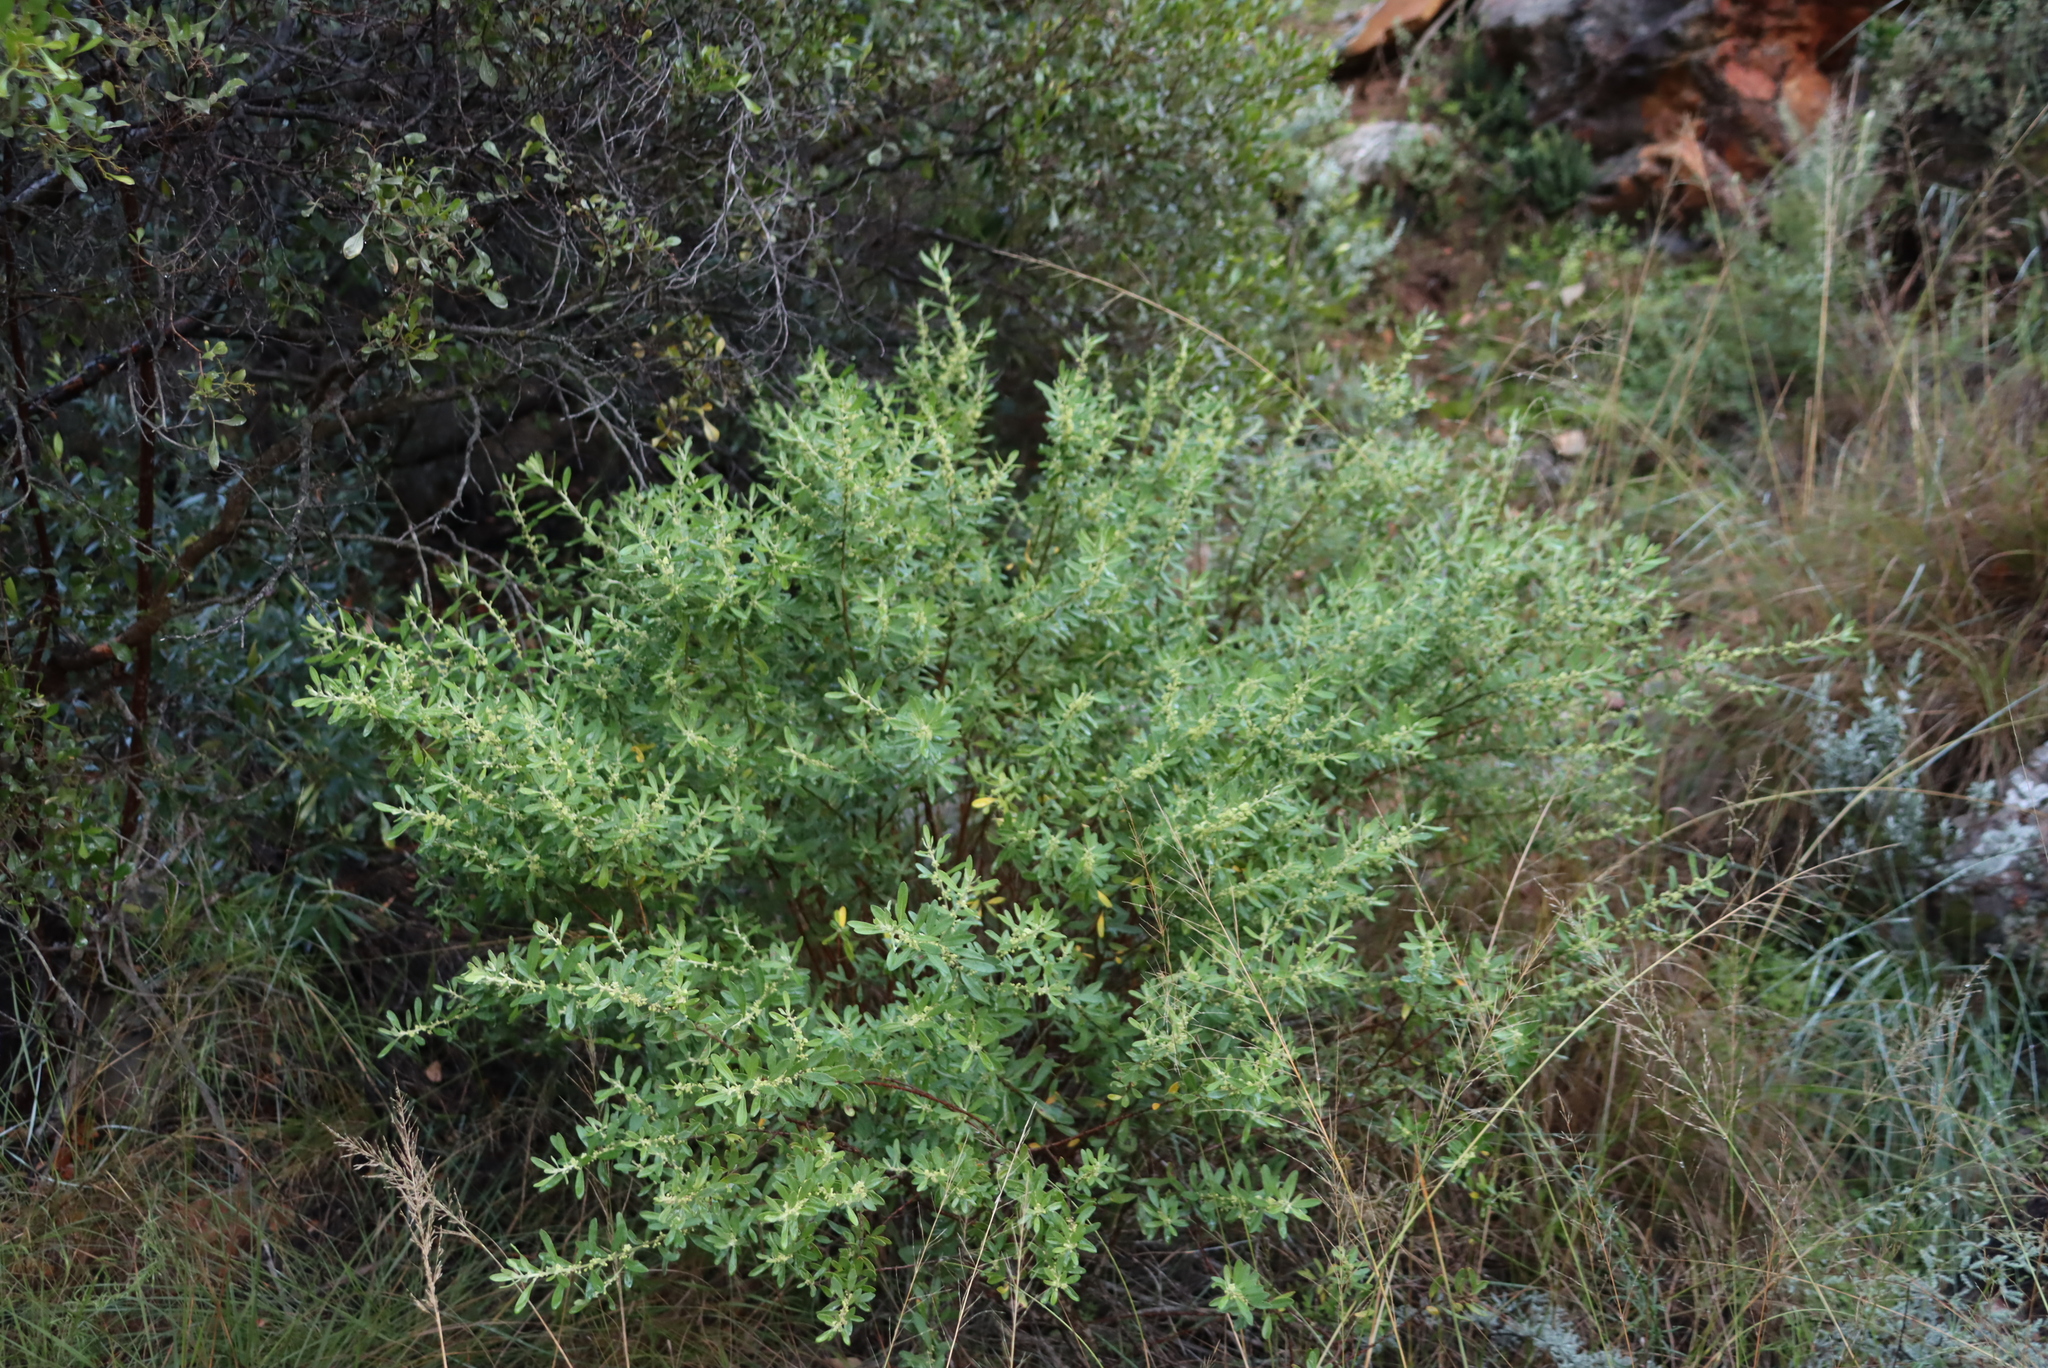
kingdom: Plantae
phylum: Tracheophyta
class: Magnoliopsida
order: Malpighiales
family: Peraceae
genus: Clutia
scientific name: Clutia daphnoides
